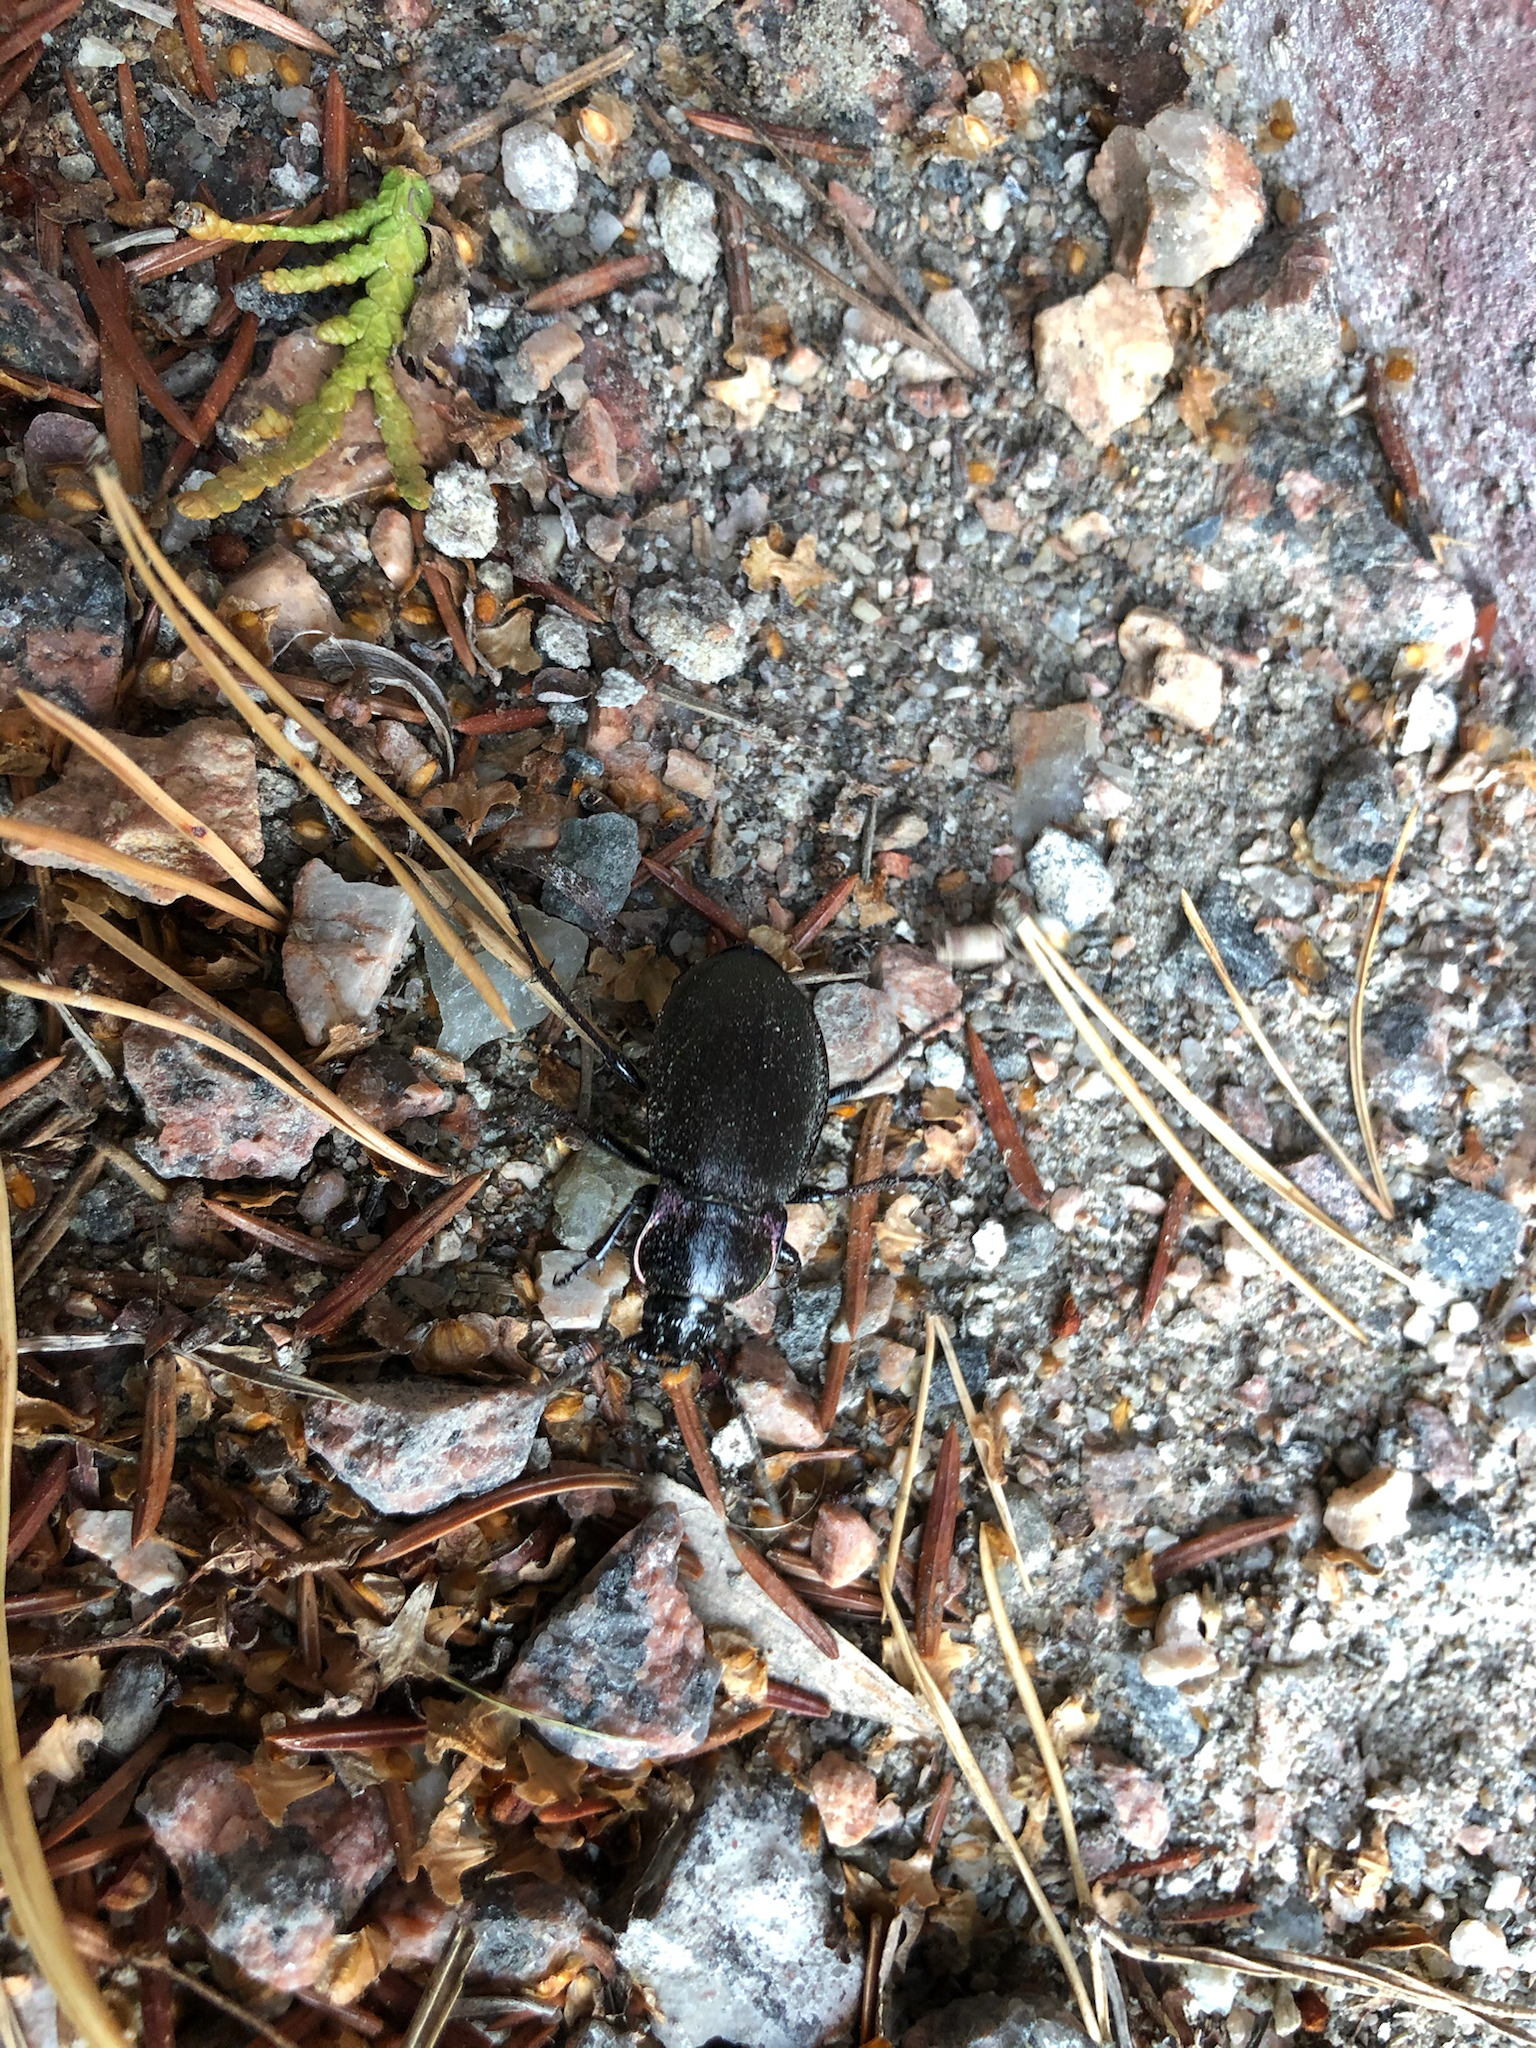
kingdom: Animalia
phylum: Arthropoda
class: Insecta
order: Coleoptera
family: Carabidae
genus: Carabus
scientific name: Carabus nemoralis
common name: European ground beetle
